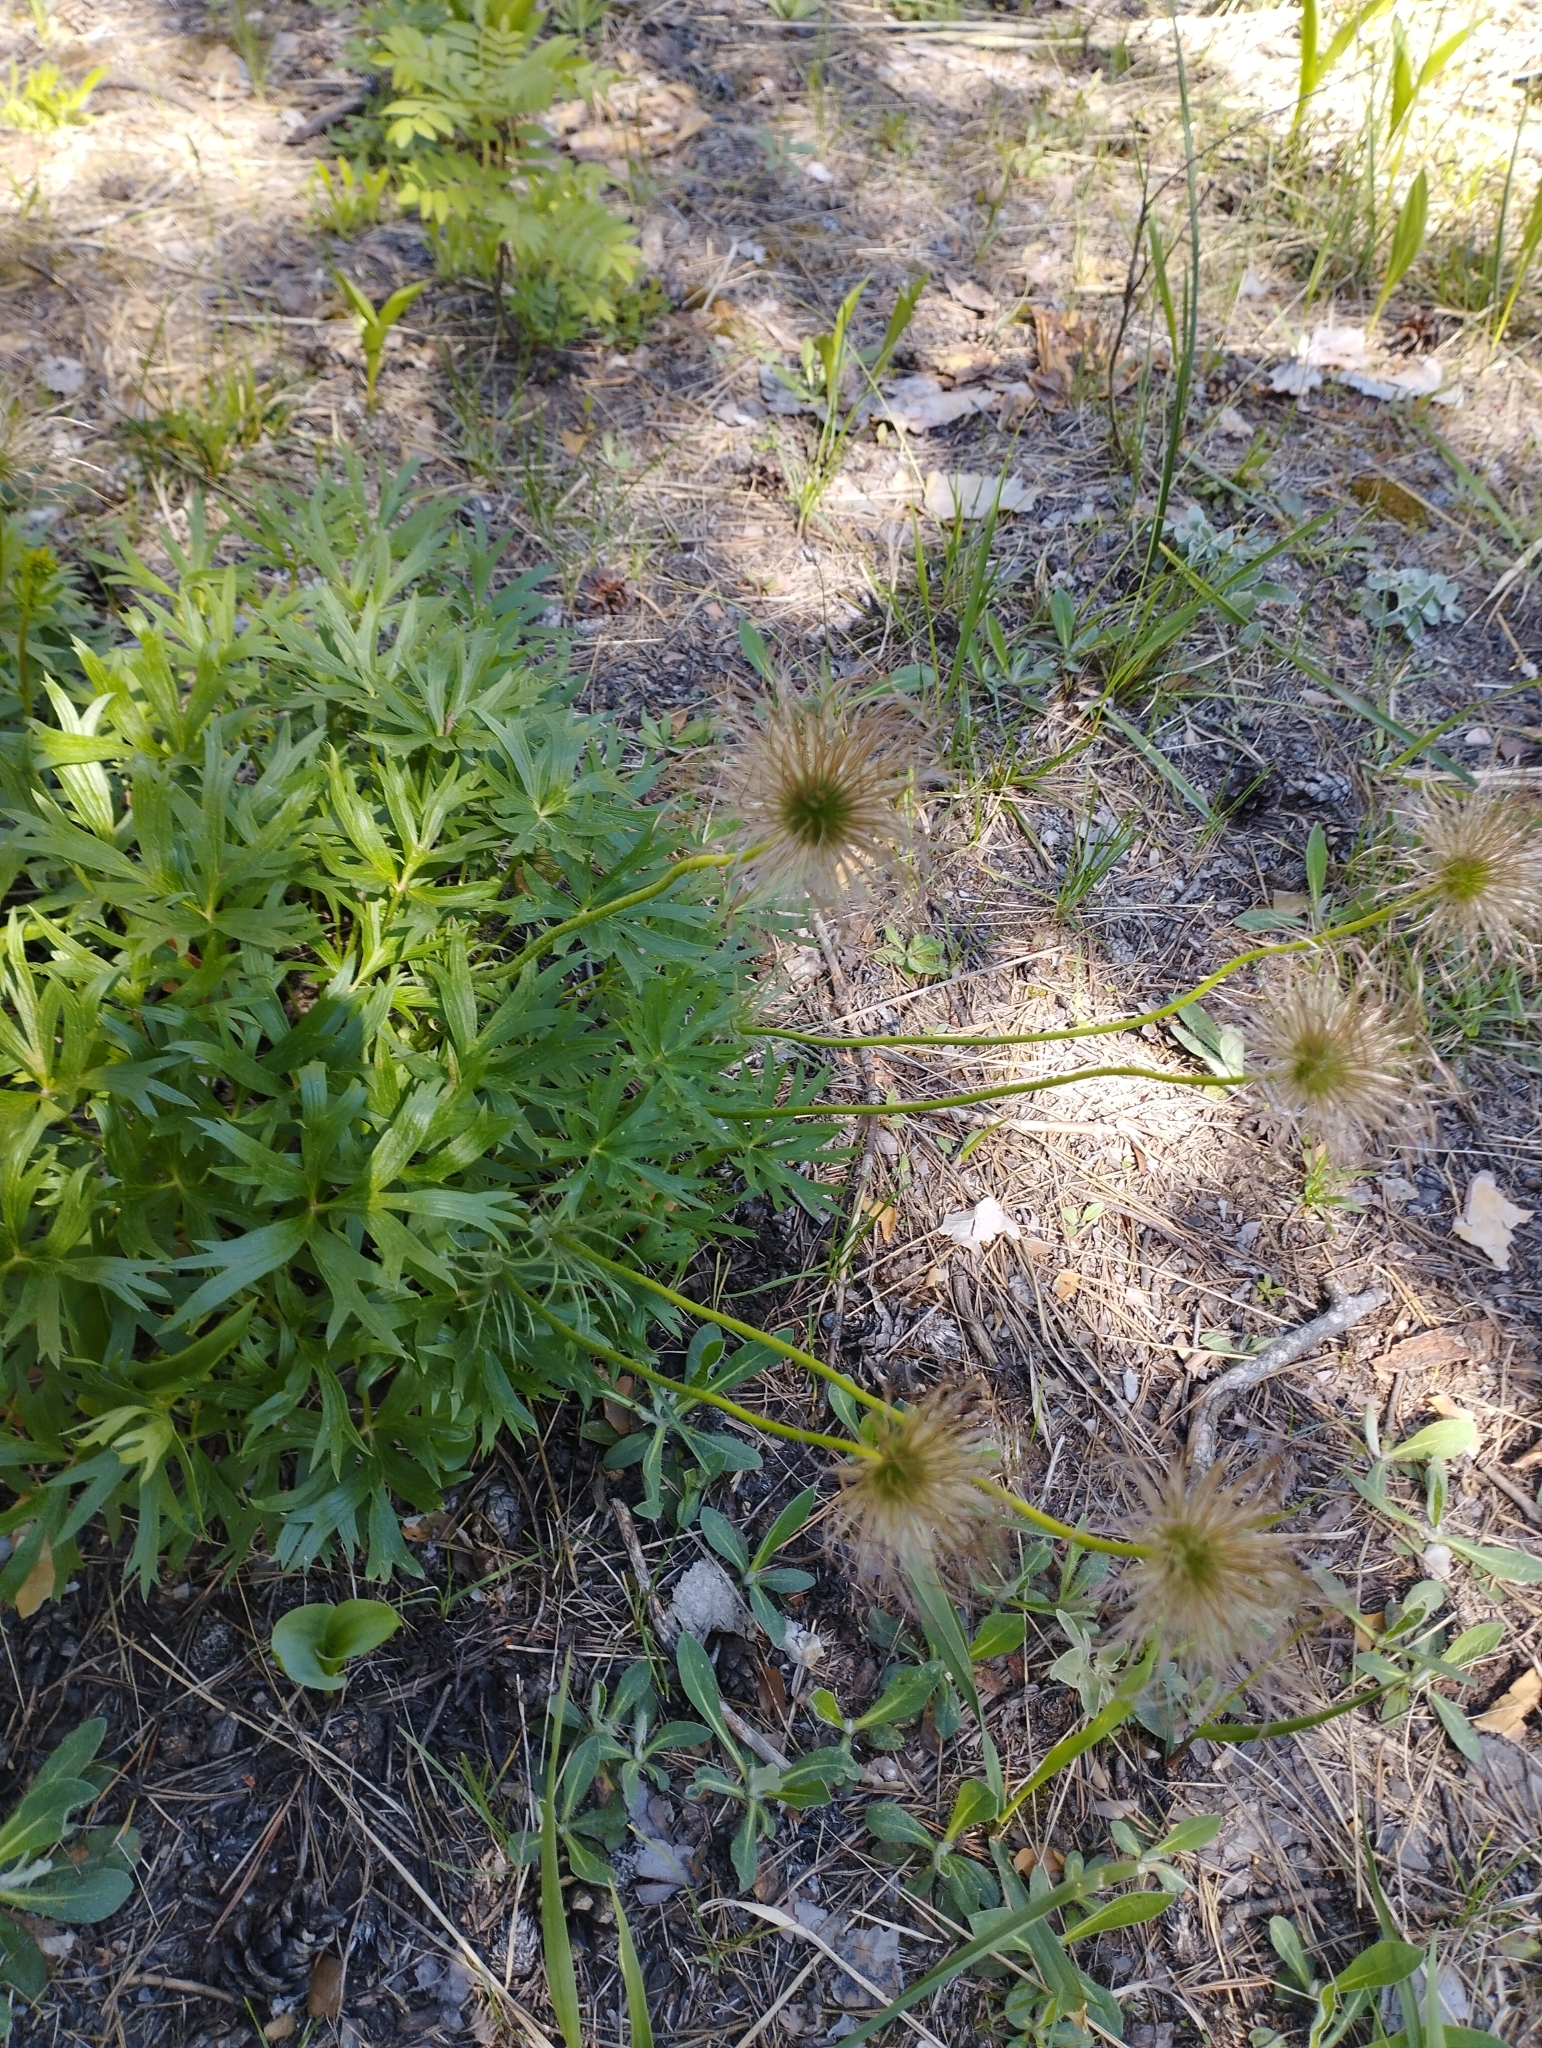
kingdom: Plantae
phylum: Tracheophyta
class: Magnoliopsida
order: Ranunculales
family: Ranunculaceae
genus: Pulsatilla
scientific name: Pulsatilla patens
